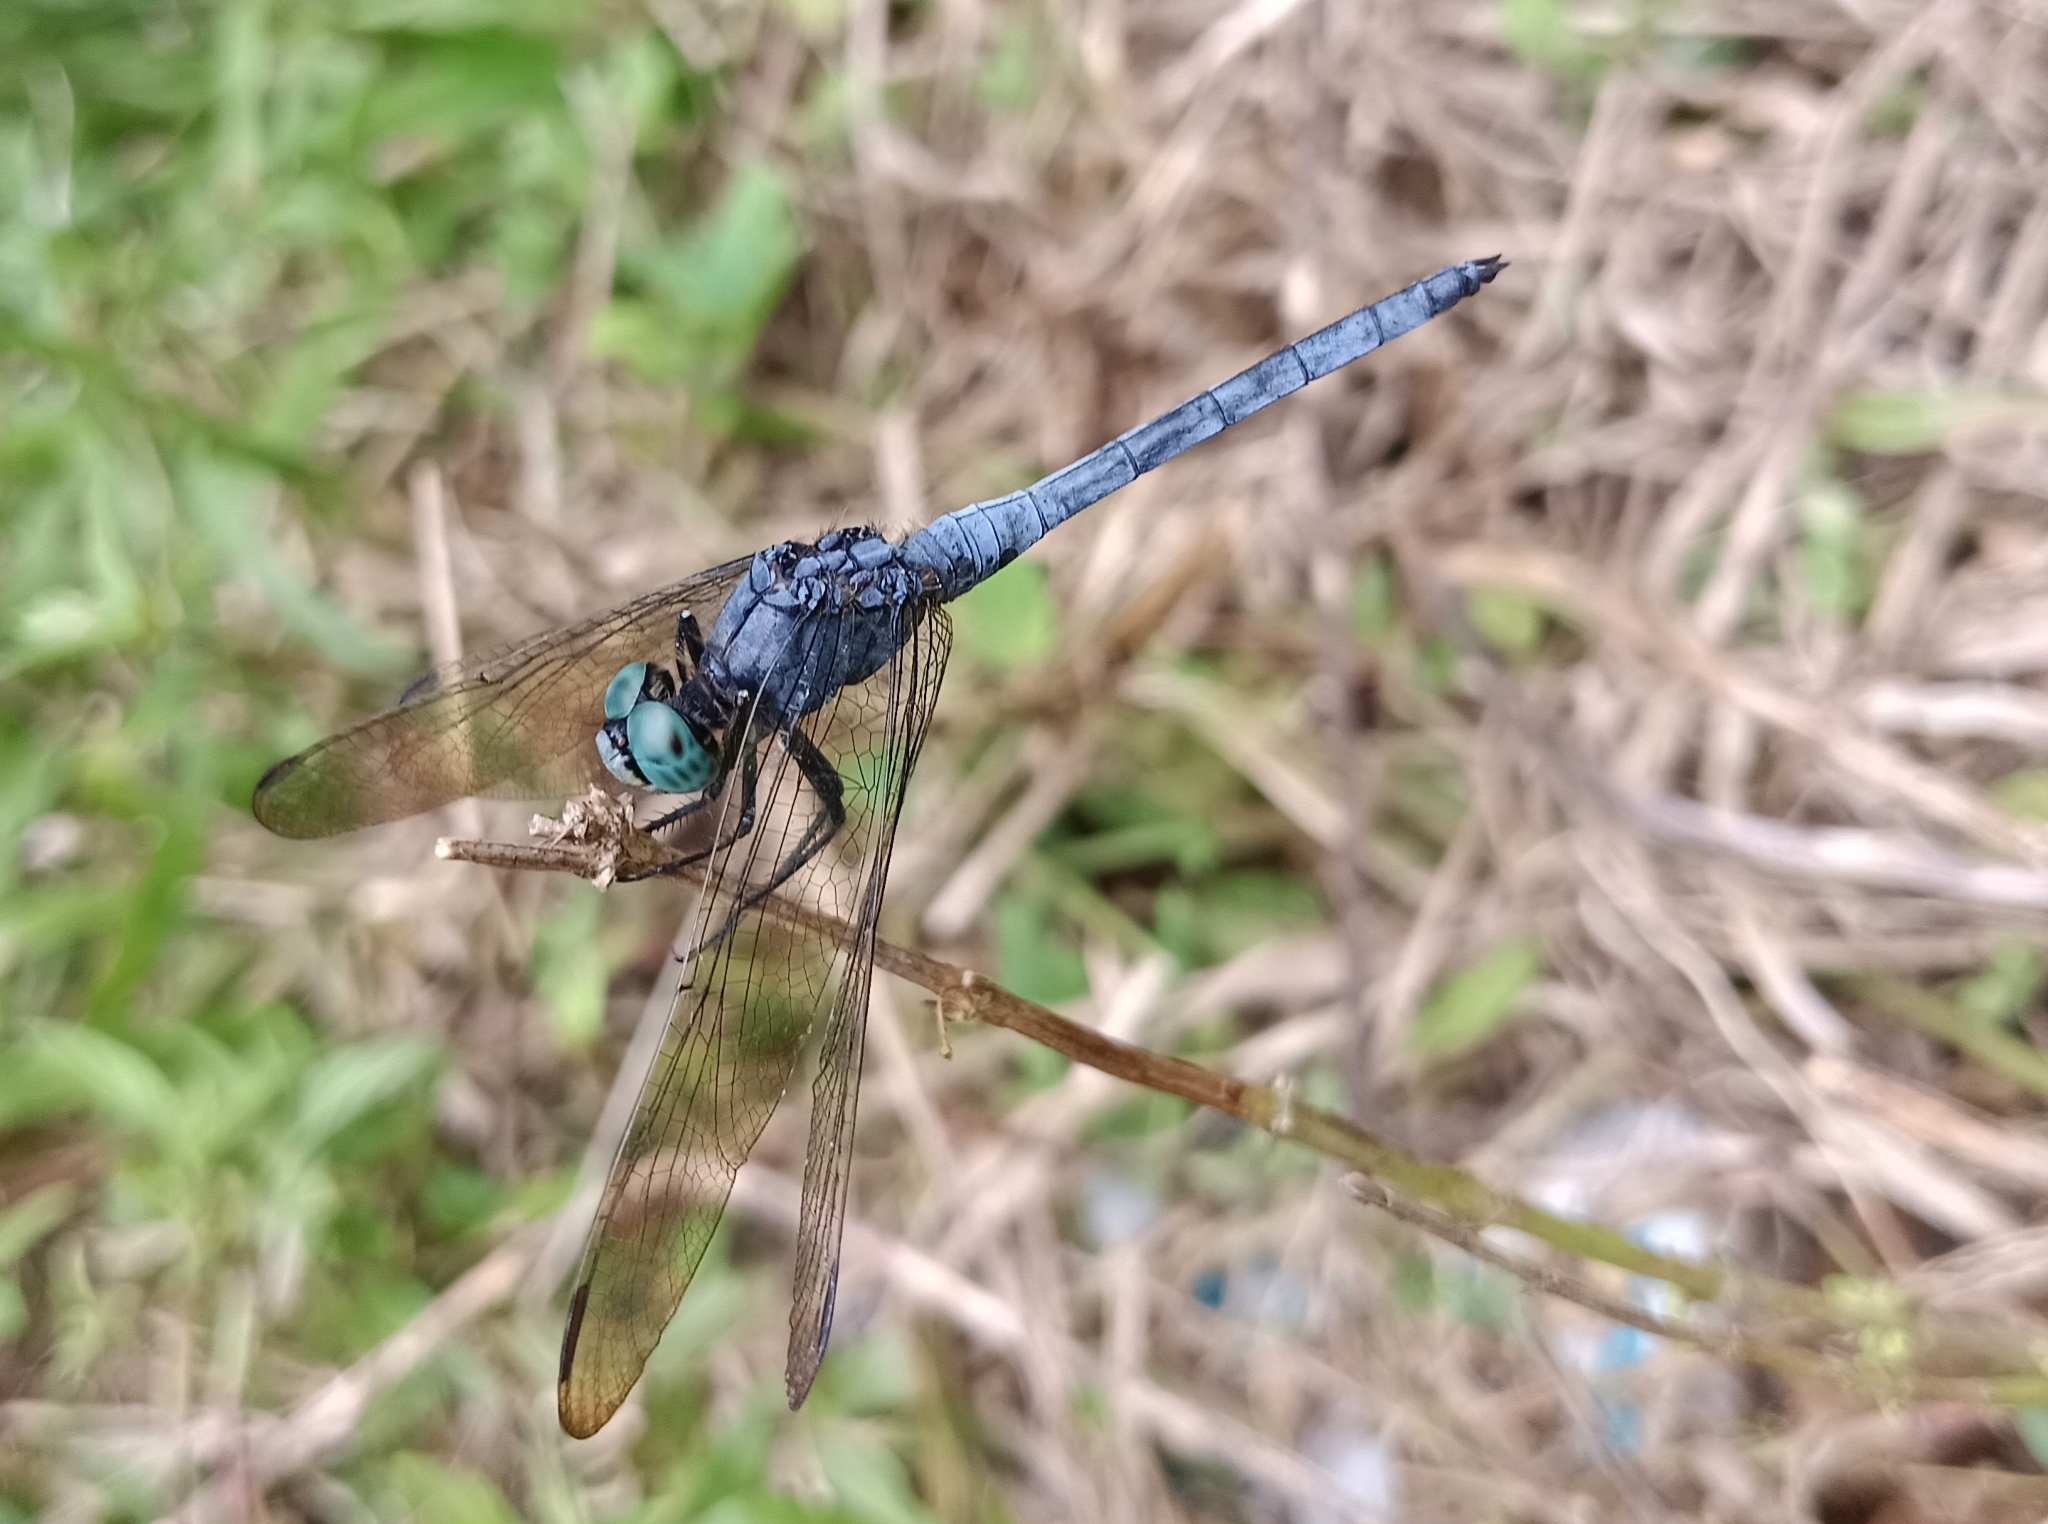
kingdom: Animalia
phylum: Arthropoda
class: Insecta
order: Odonata
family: Libellulidae
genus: Orthetrum
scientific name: Orthetrum luzonicum
